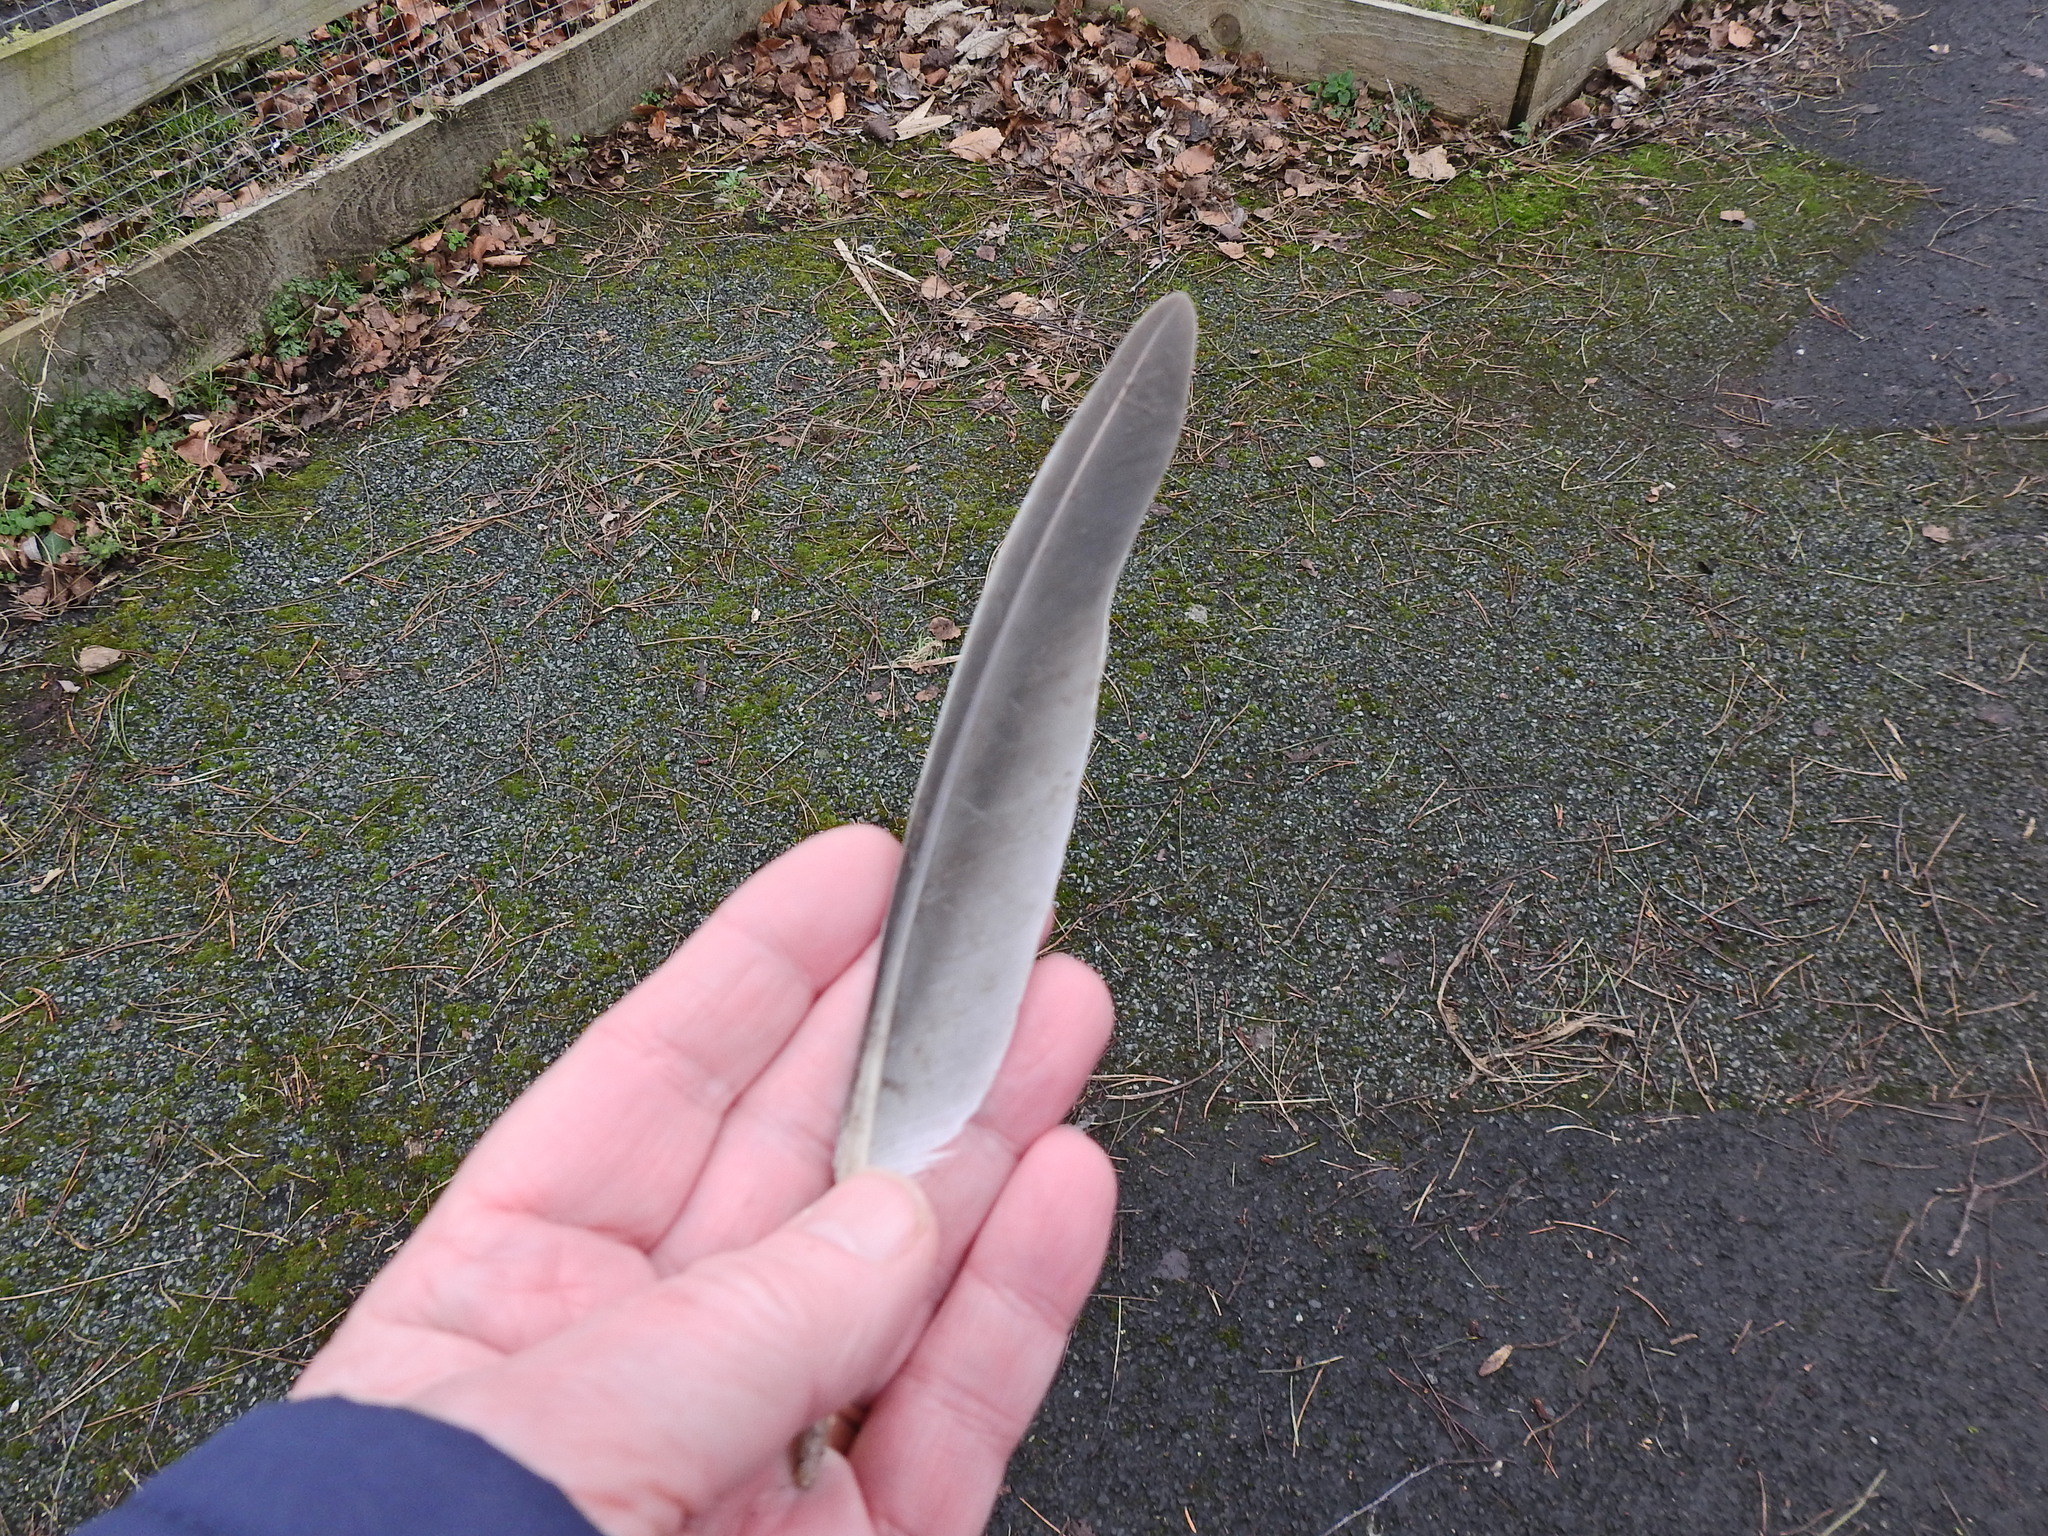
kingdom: Animalia
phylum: Chordata
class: Aves
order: Columbiformes
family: Columbidae
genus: Columba
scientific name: Columba palumbus
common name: Common wood pigeon
